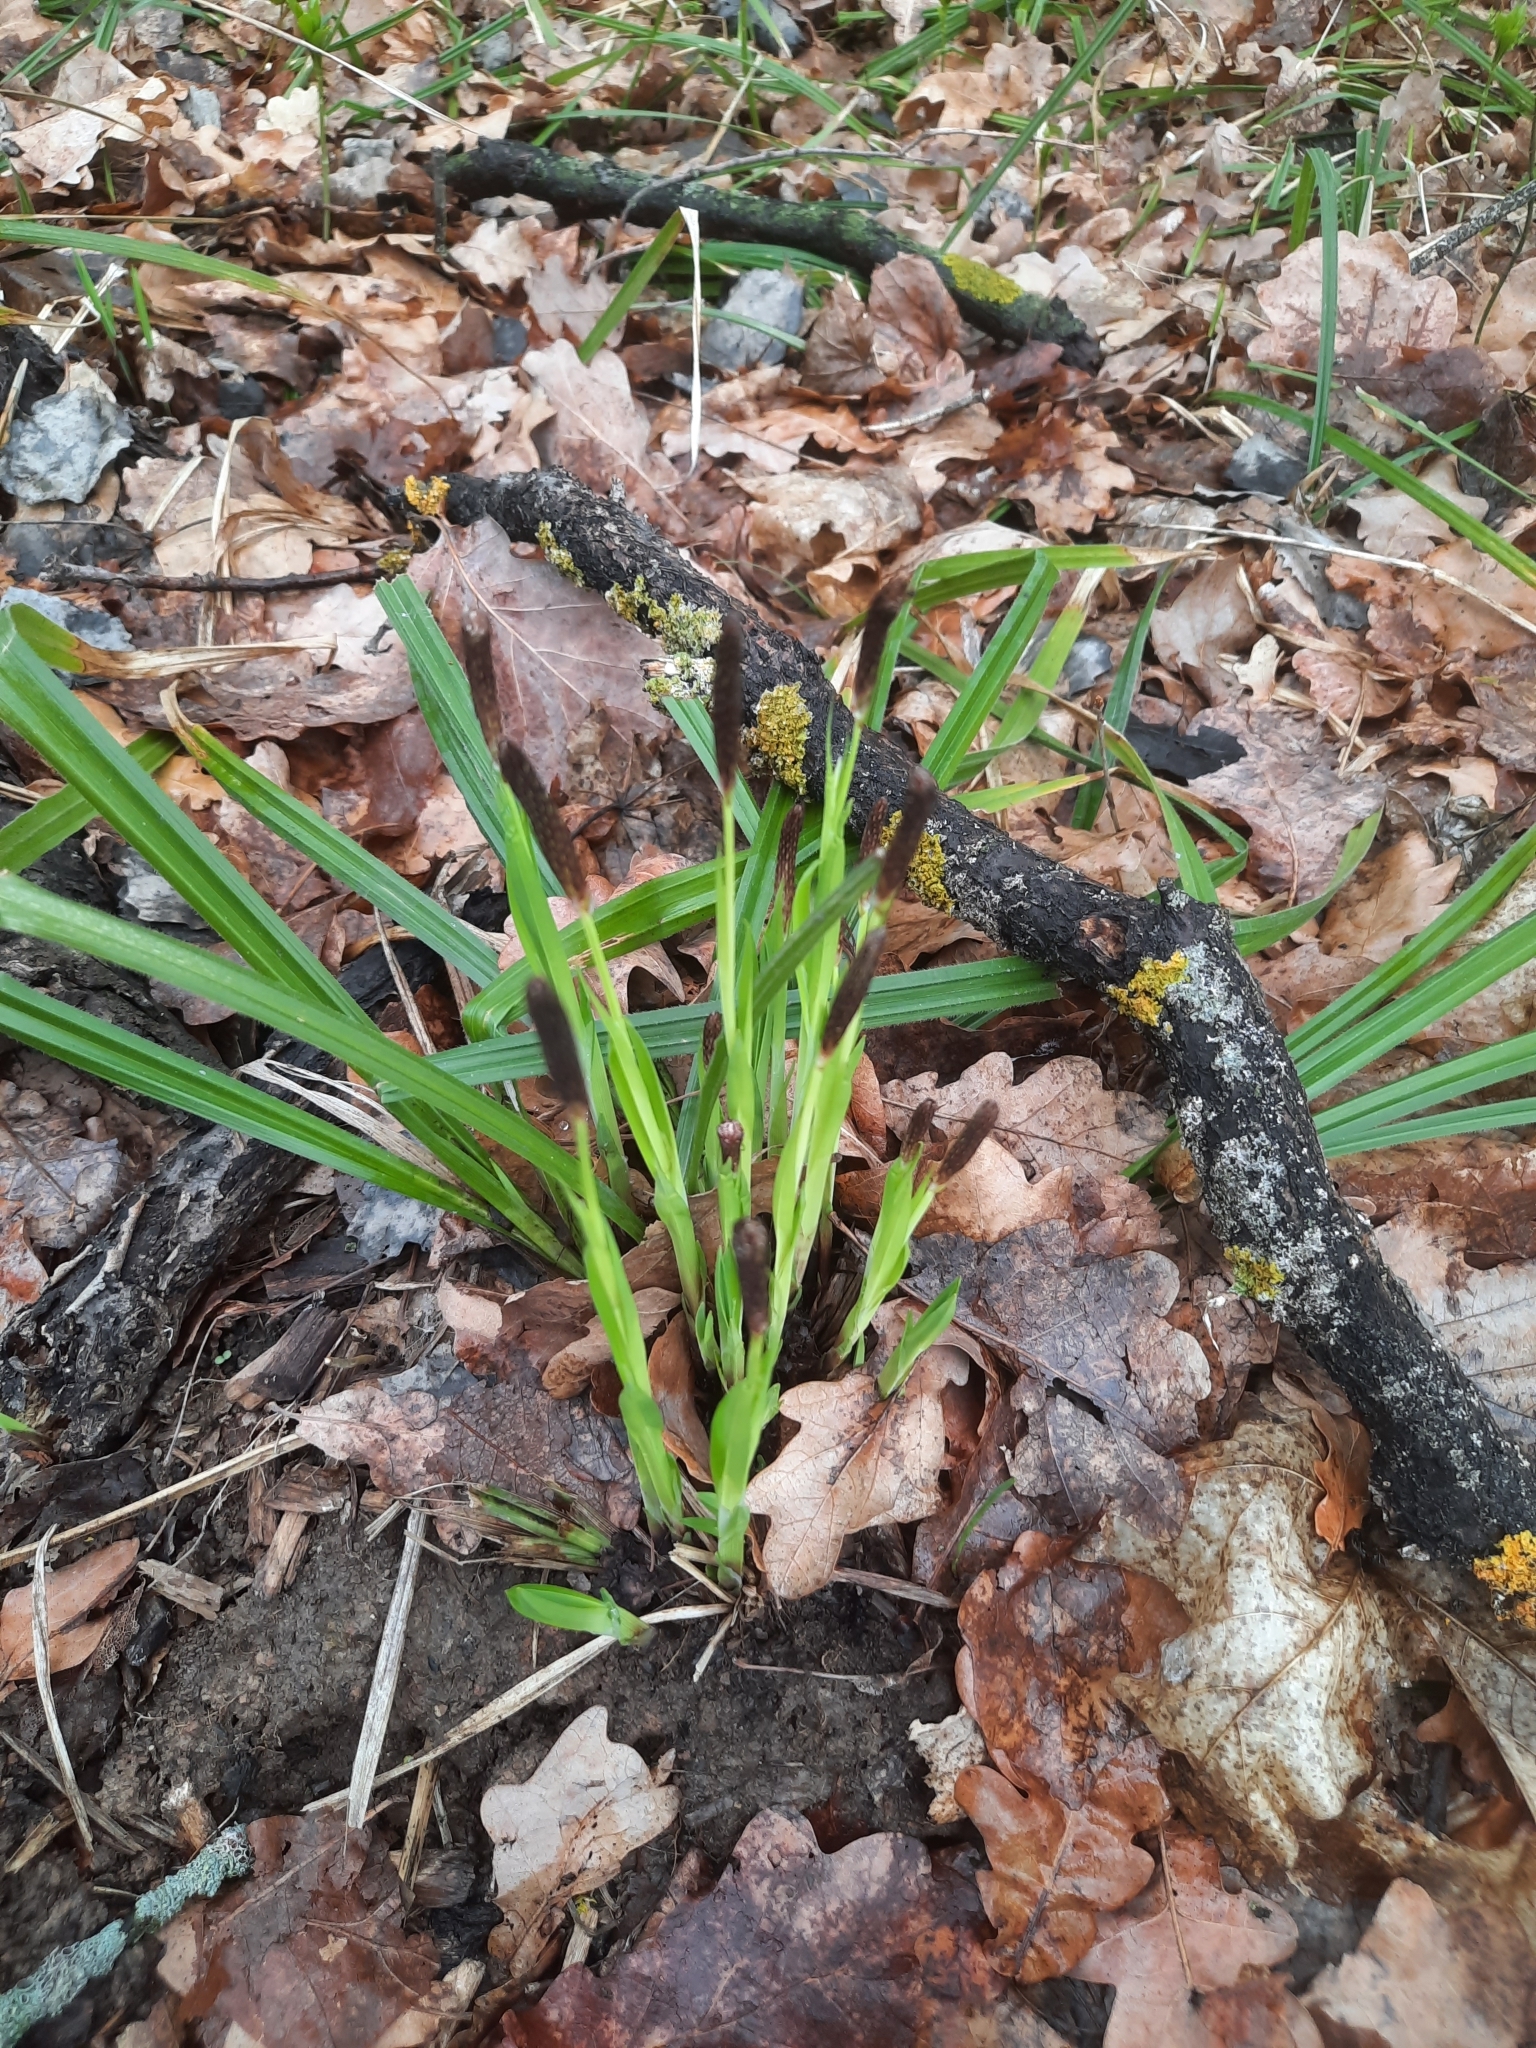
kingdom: Plantae
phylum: Tracheophyta
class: Liliopsida
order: Poales
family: Cyperaceae
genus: Carex
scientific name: Carex pilosa
